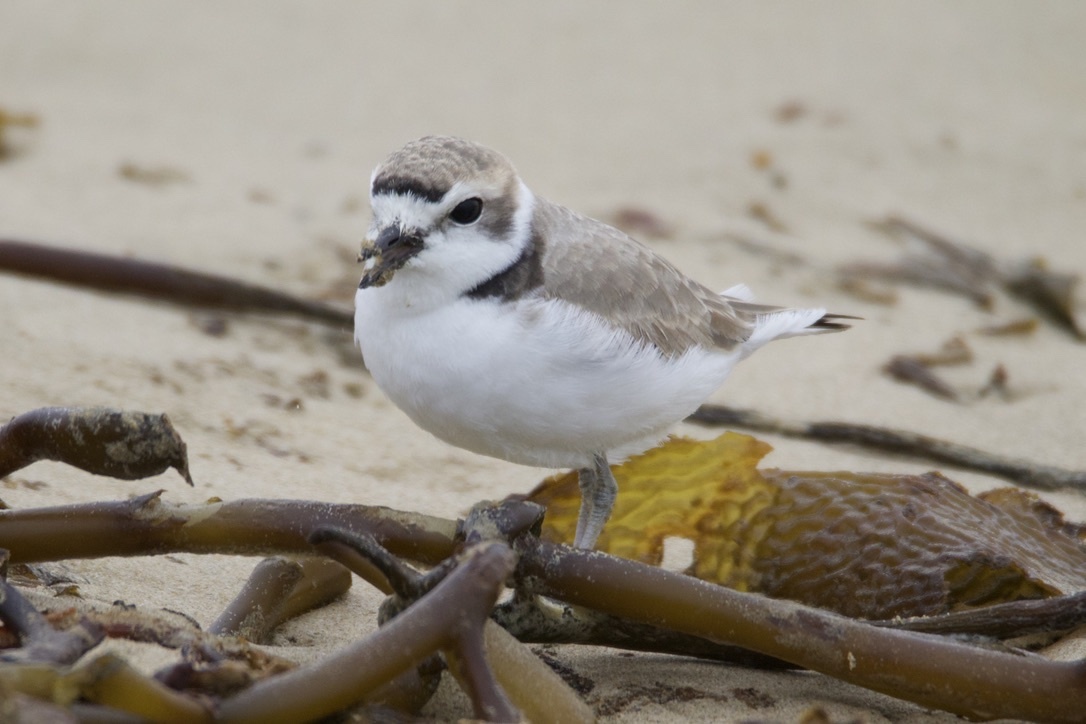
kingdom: Animalia
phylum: Chordata
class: Aves
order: Charadriiformes
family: Charadriidae
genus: Anarhynchus
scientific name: Anarhynchus
